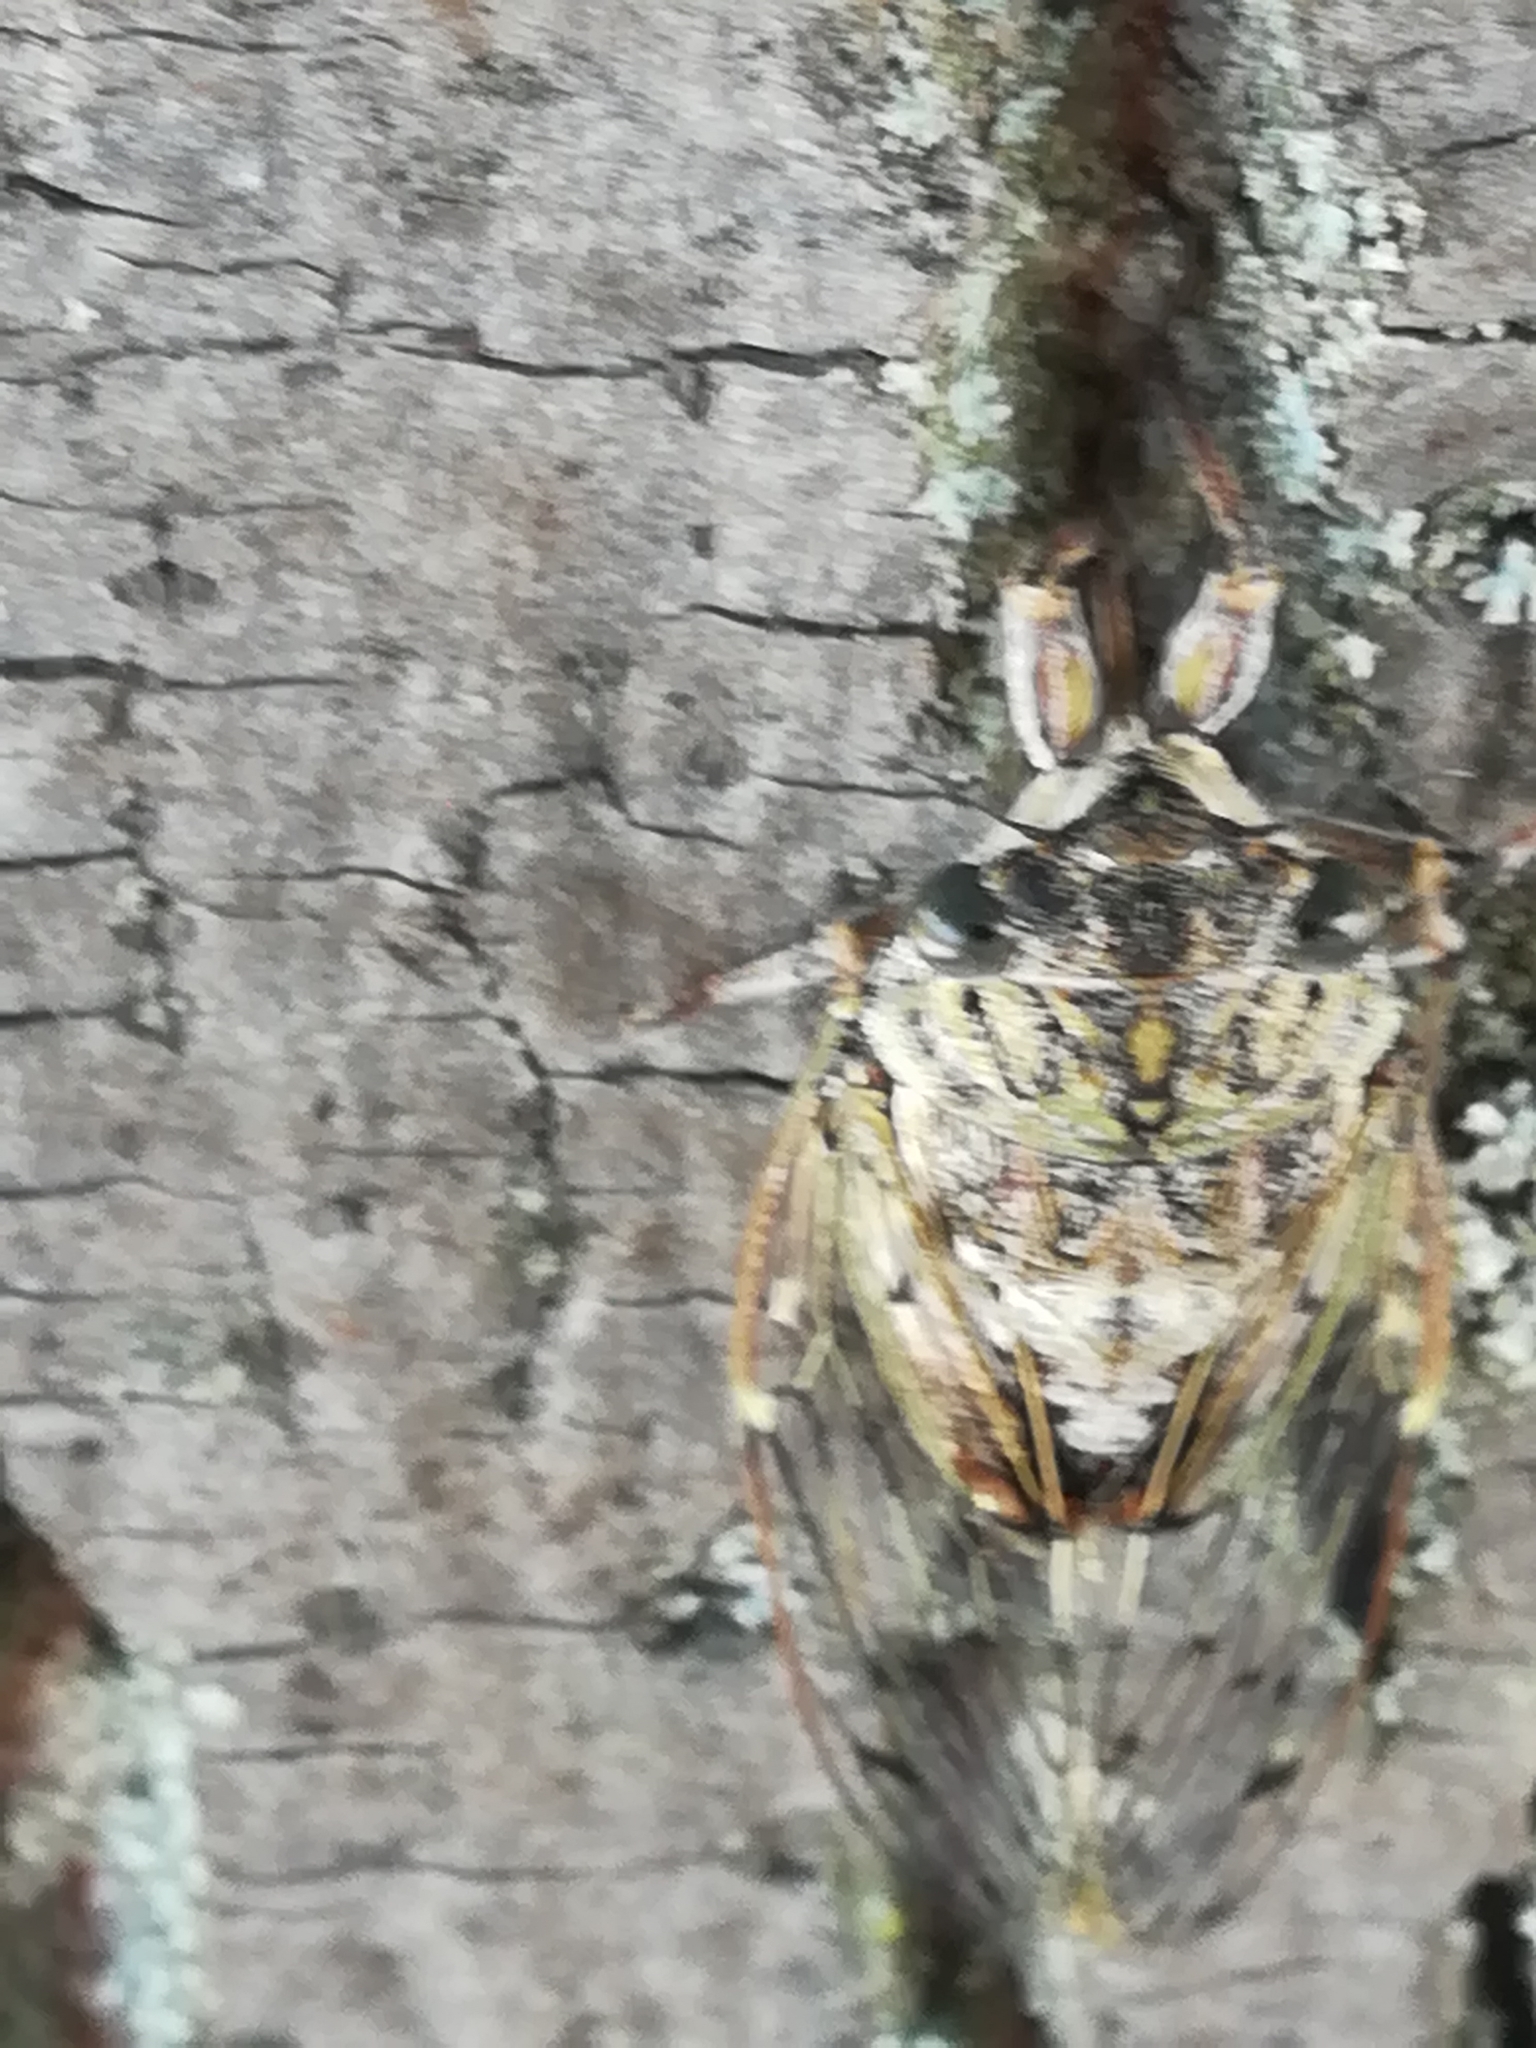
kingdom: Animalia
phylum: Arthropoda
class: Insecta
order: Hemiptera
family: Cicadidae
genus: Cicada
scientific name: Cicada orni
